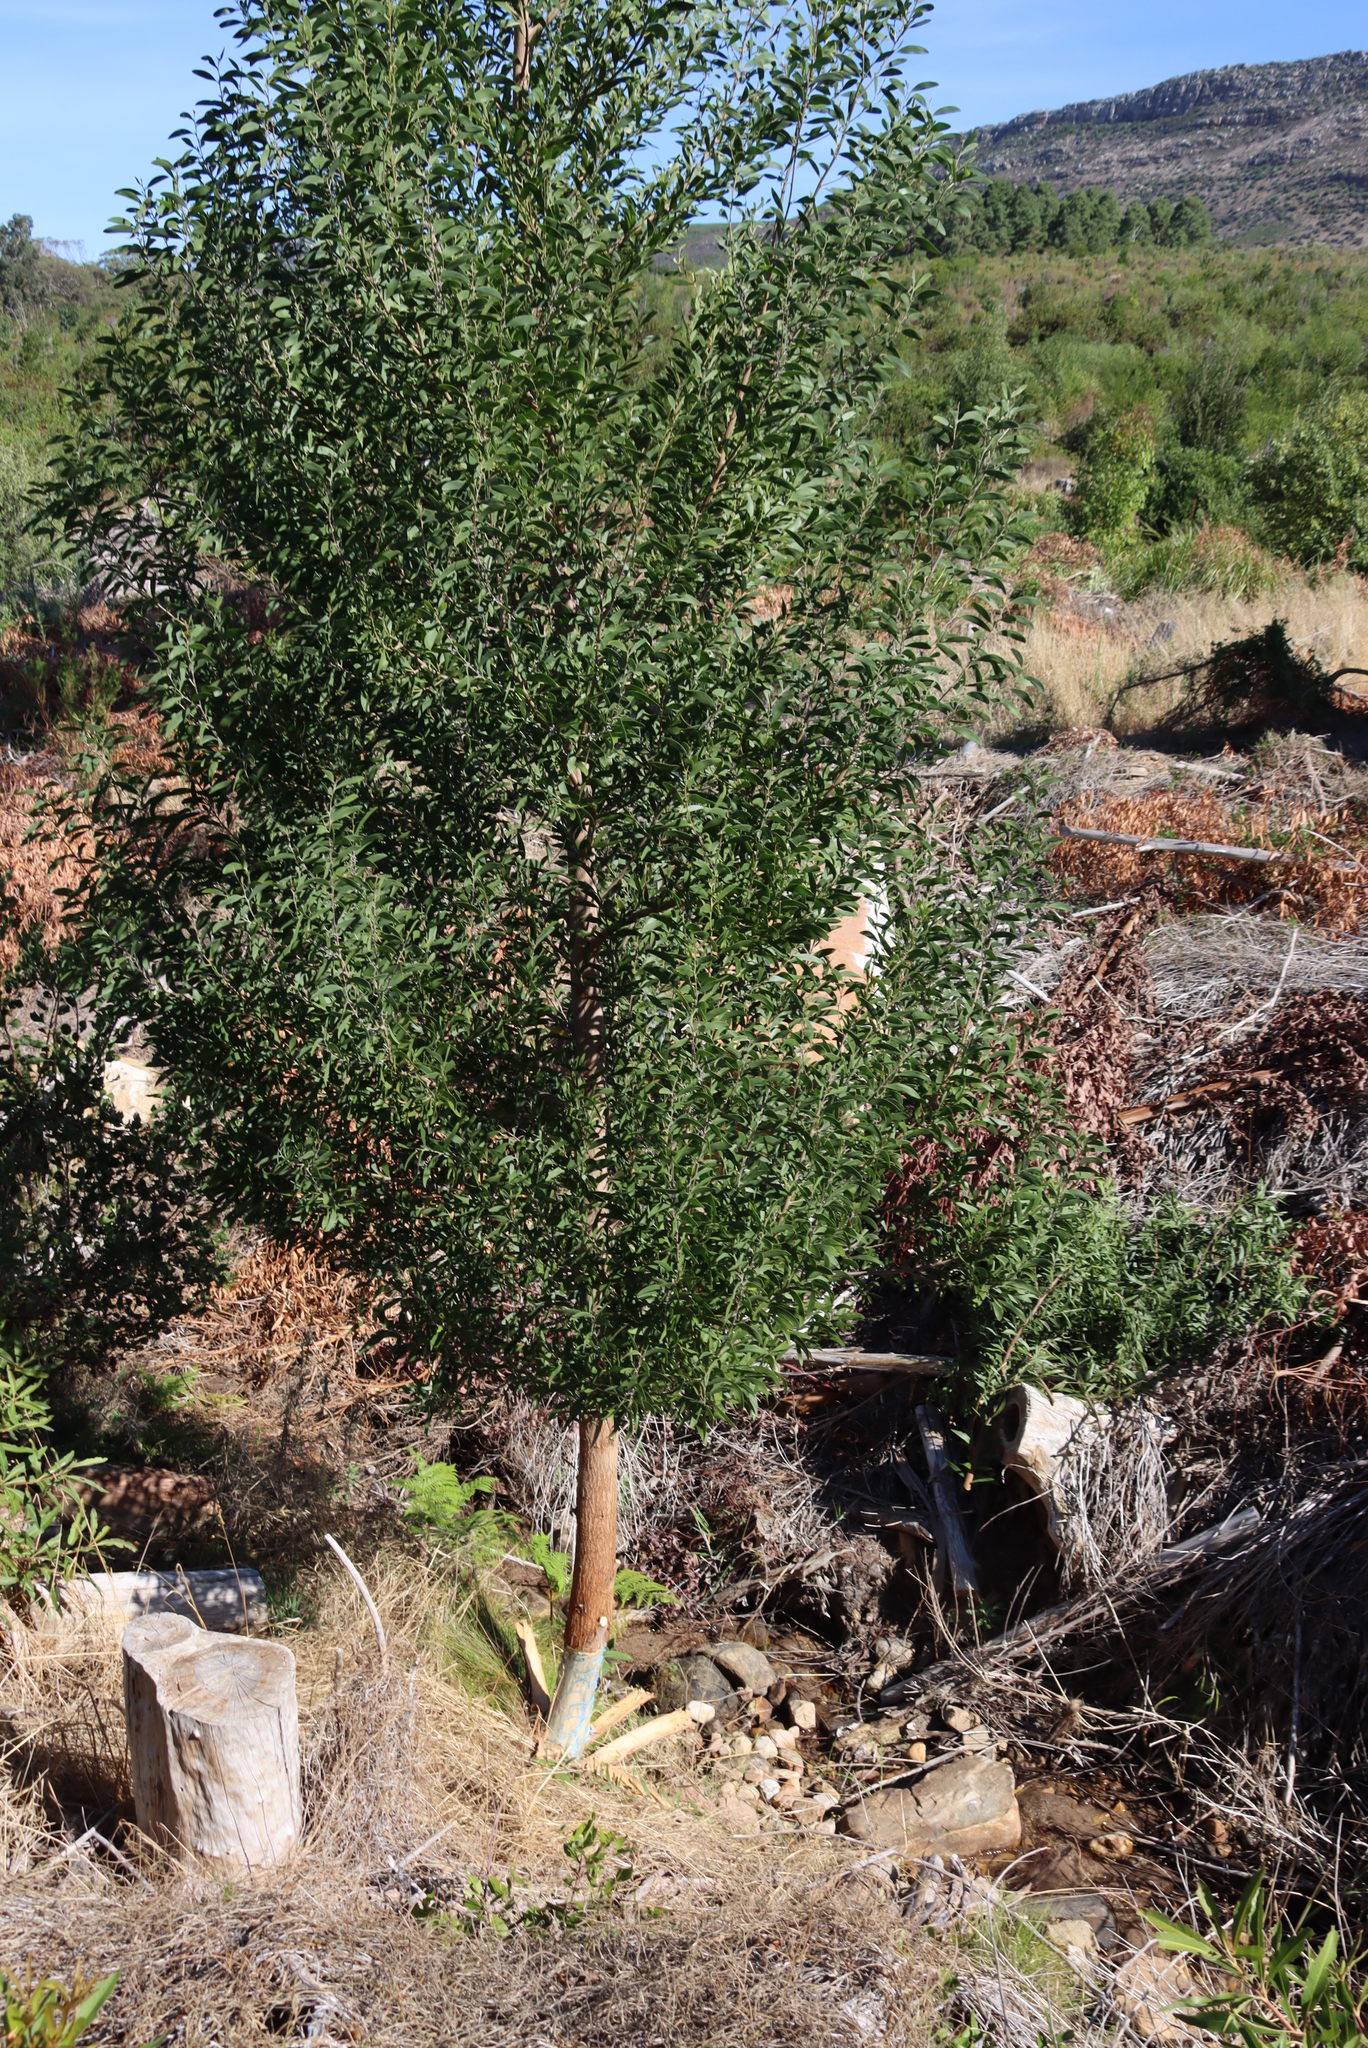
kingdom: Plantae
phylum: Tracheophyta
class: Magnoliopsida
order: Fabales
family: Fabaceae
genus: Acacia
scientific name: Acacia melanoxylon
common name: Blackwood
